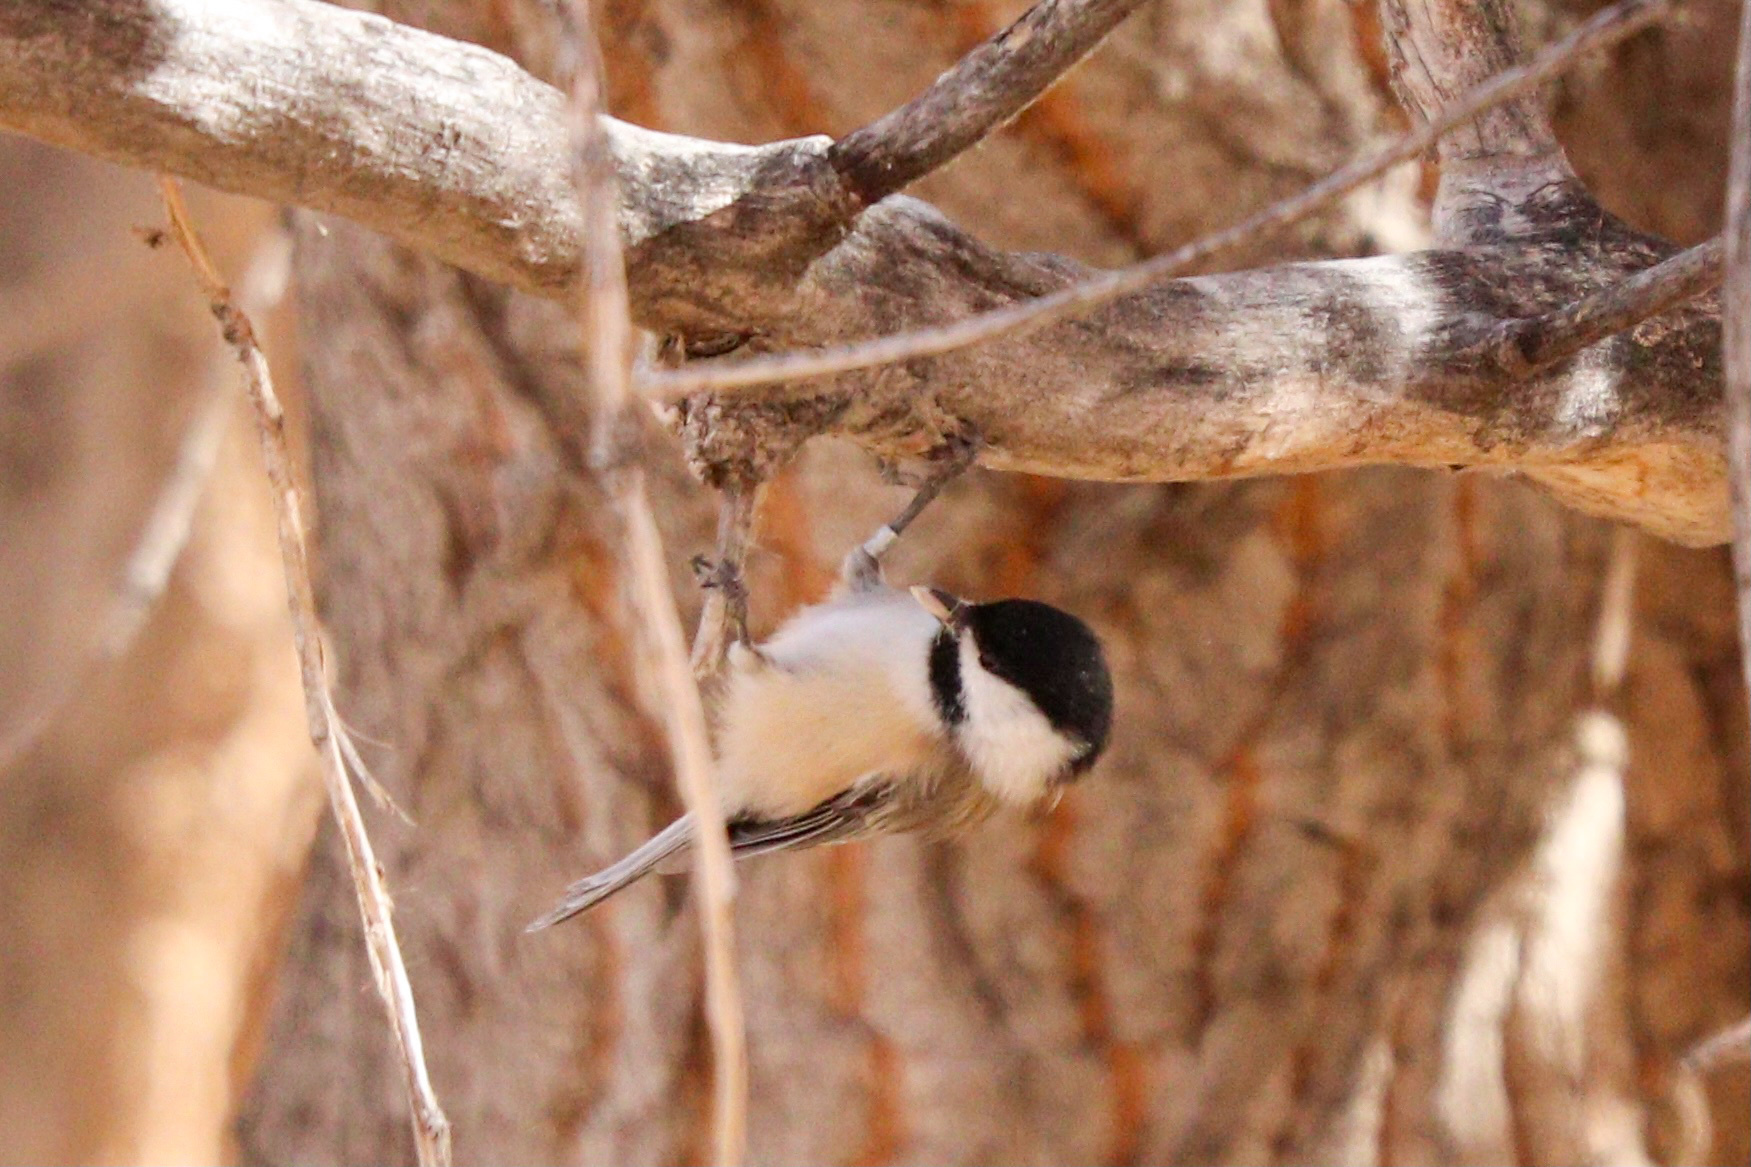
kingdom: Animalia
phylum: Chordata
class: Aves
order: Passeriformes
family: Paridae
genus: Poecile
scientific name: Poecile atricapillus
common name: Black-capped chickadee
